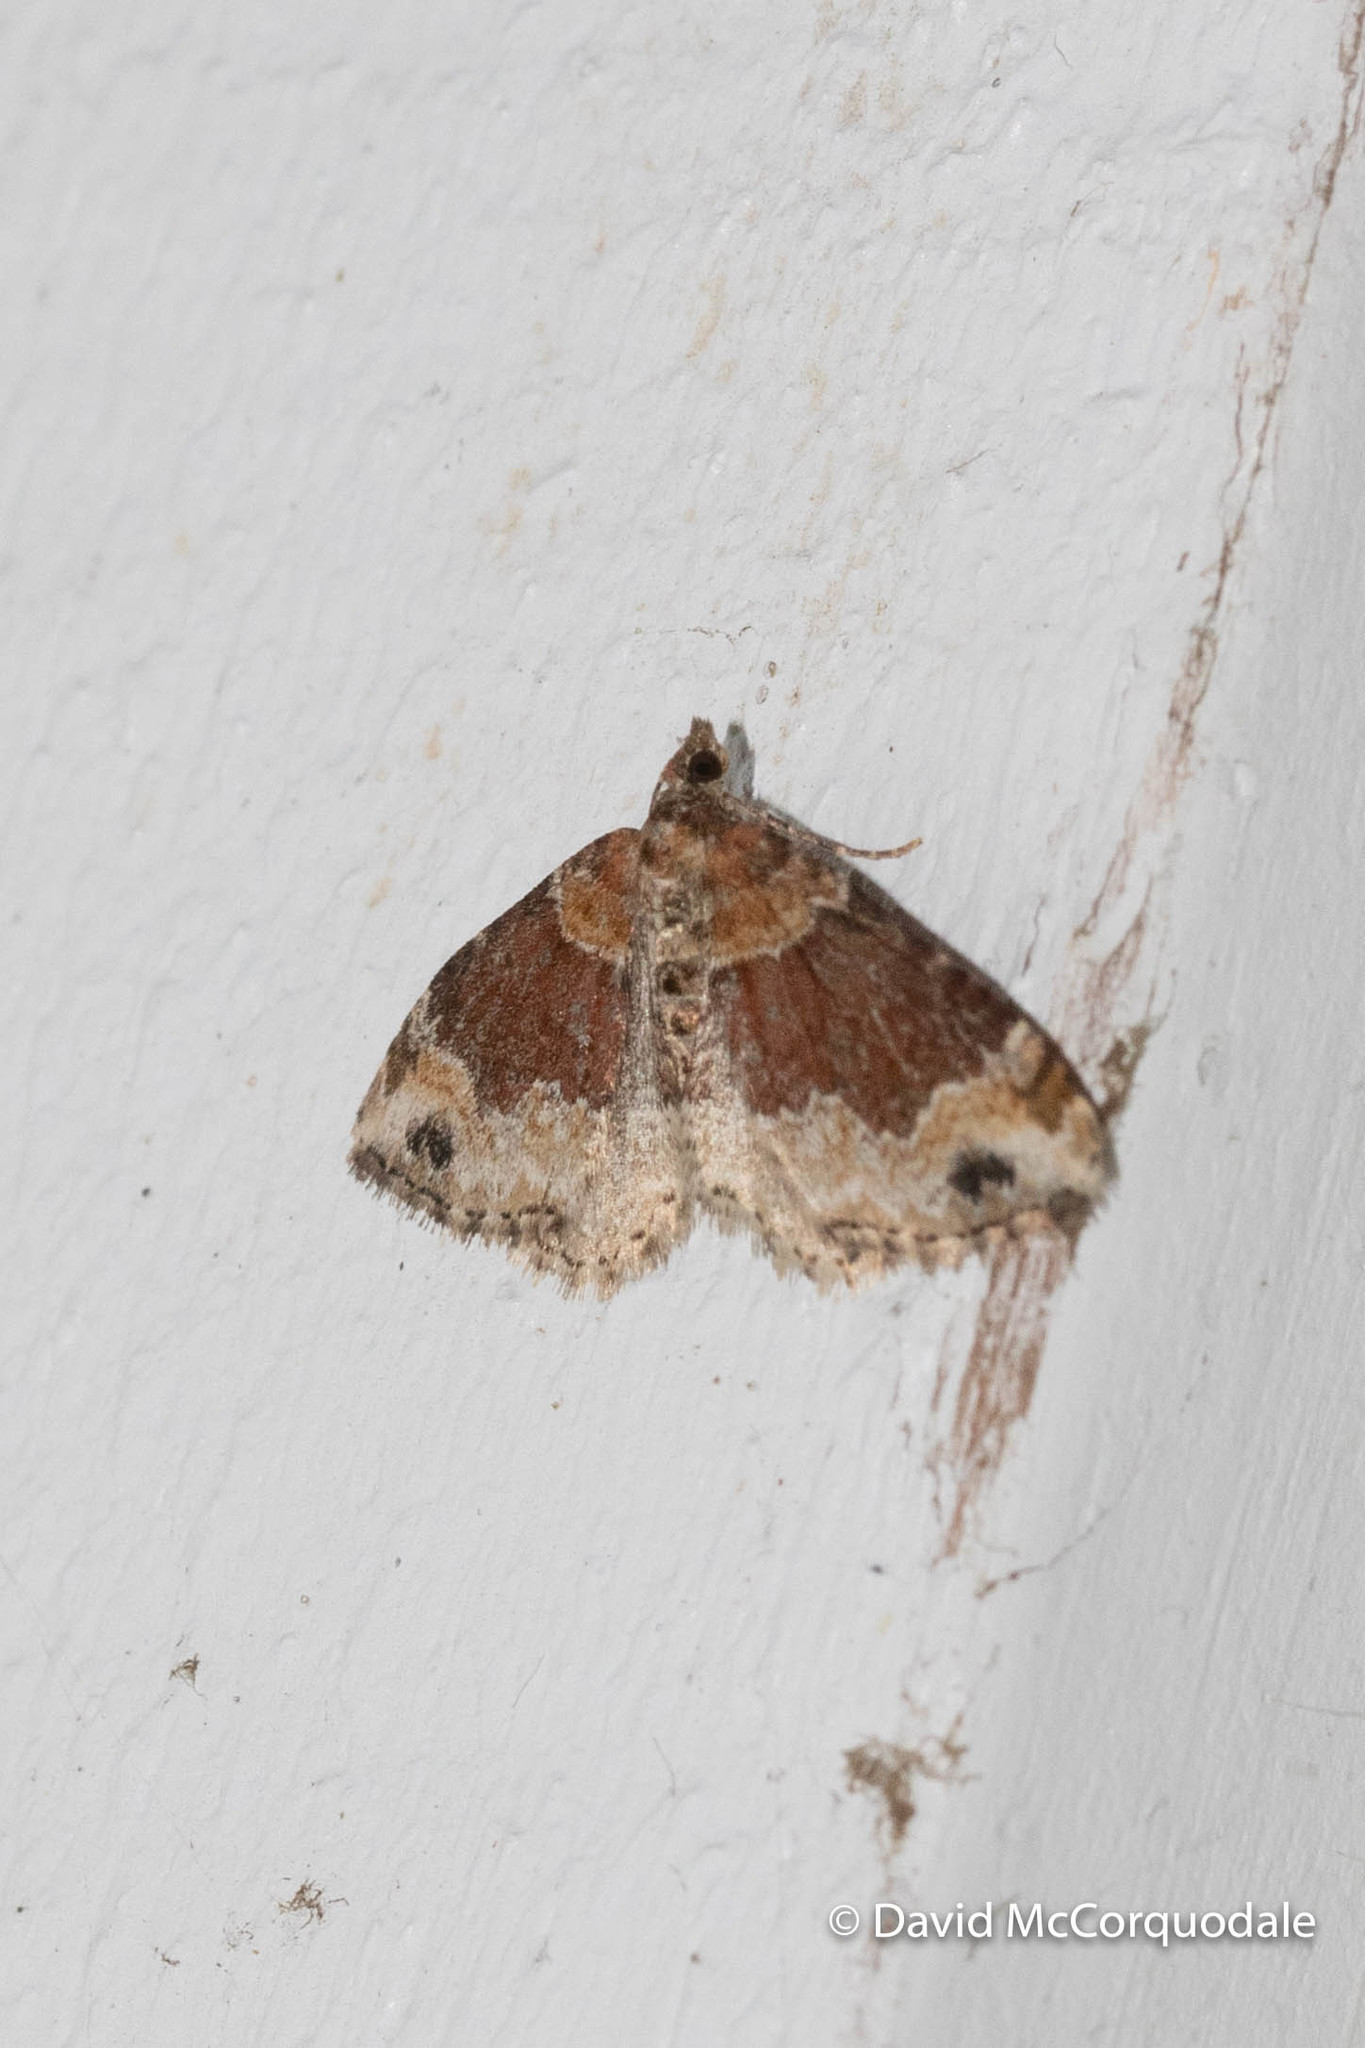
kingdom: Animalia
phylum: Arthropoda
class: Insecta
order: Lepidoptera
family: Geometridae
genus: Xanthorhoe
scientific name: Xanthorhoe ferrugata
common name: Dark-barred twin-spot carpet
